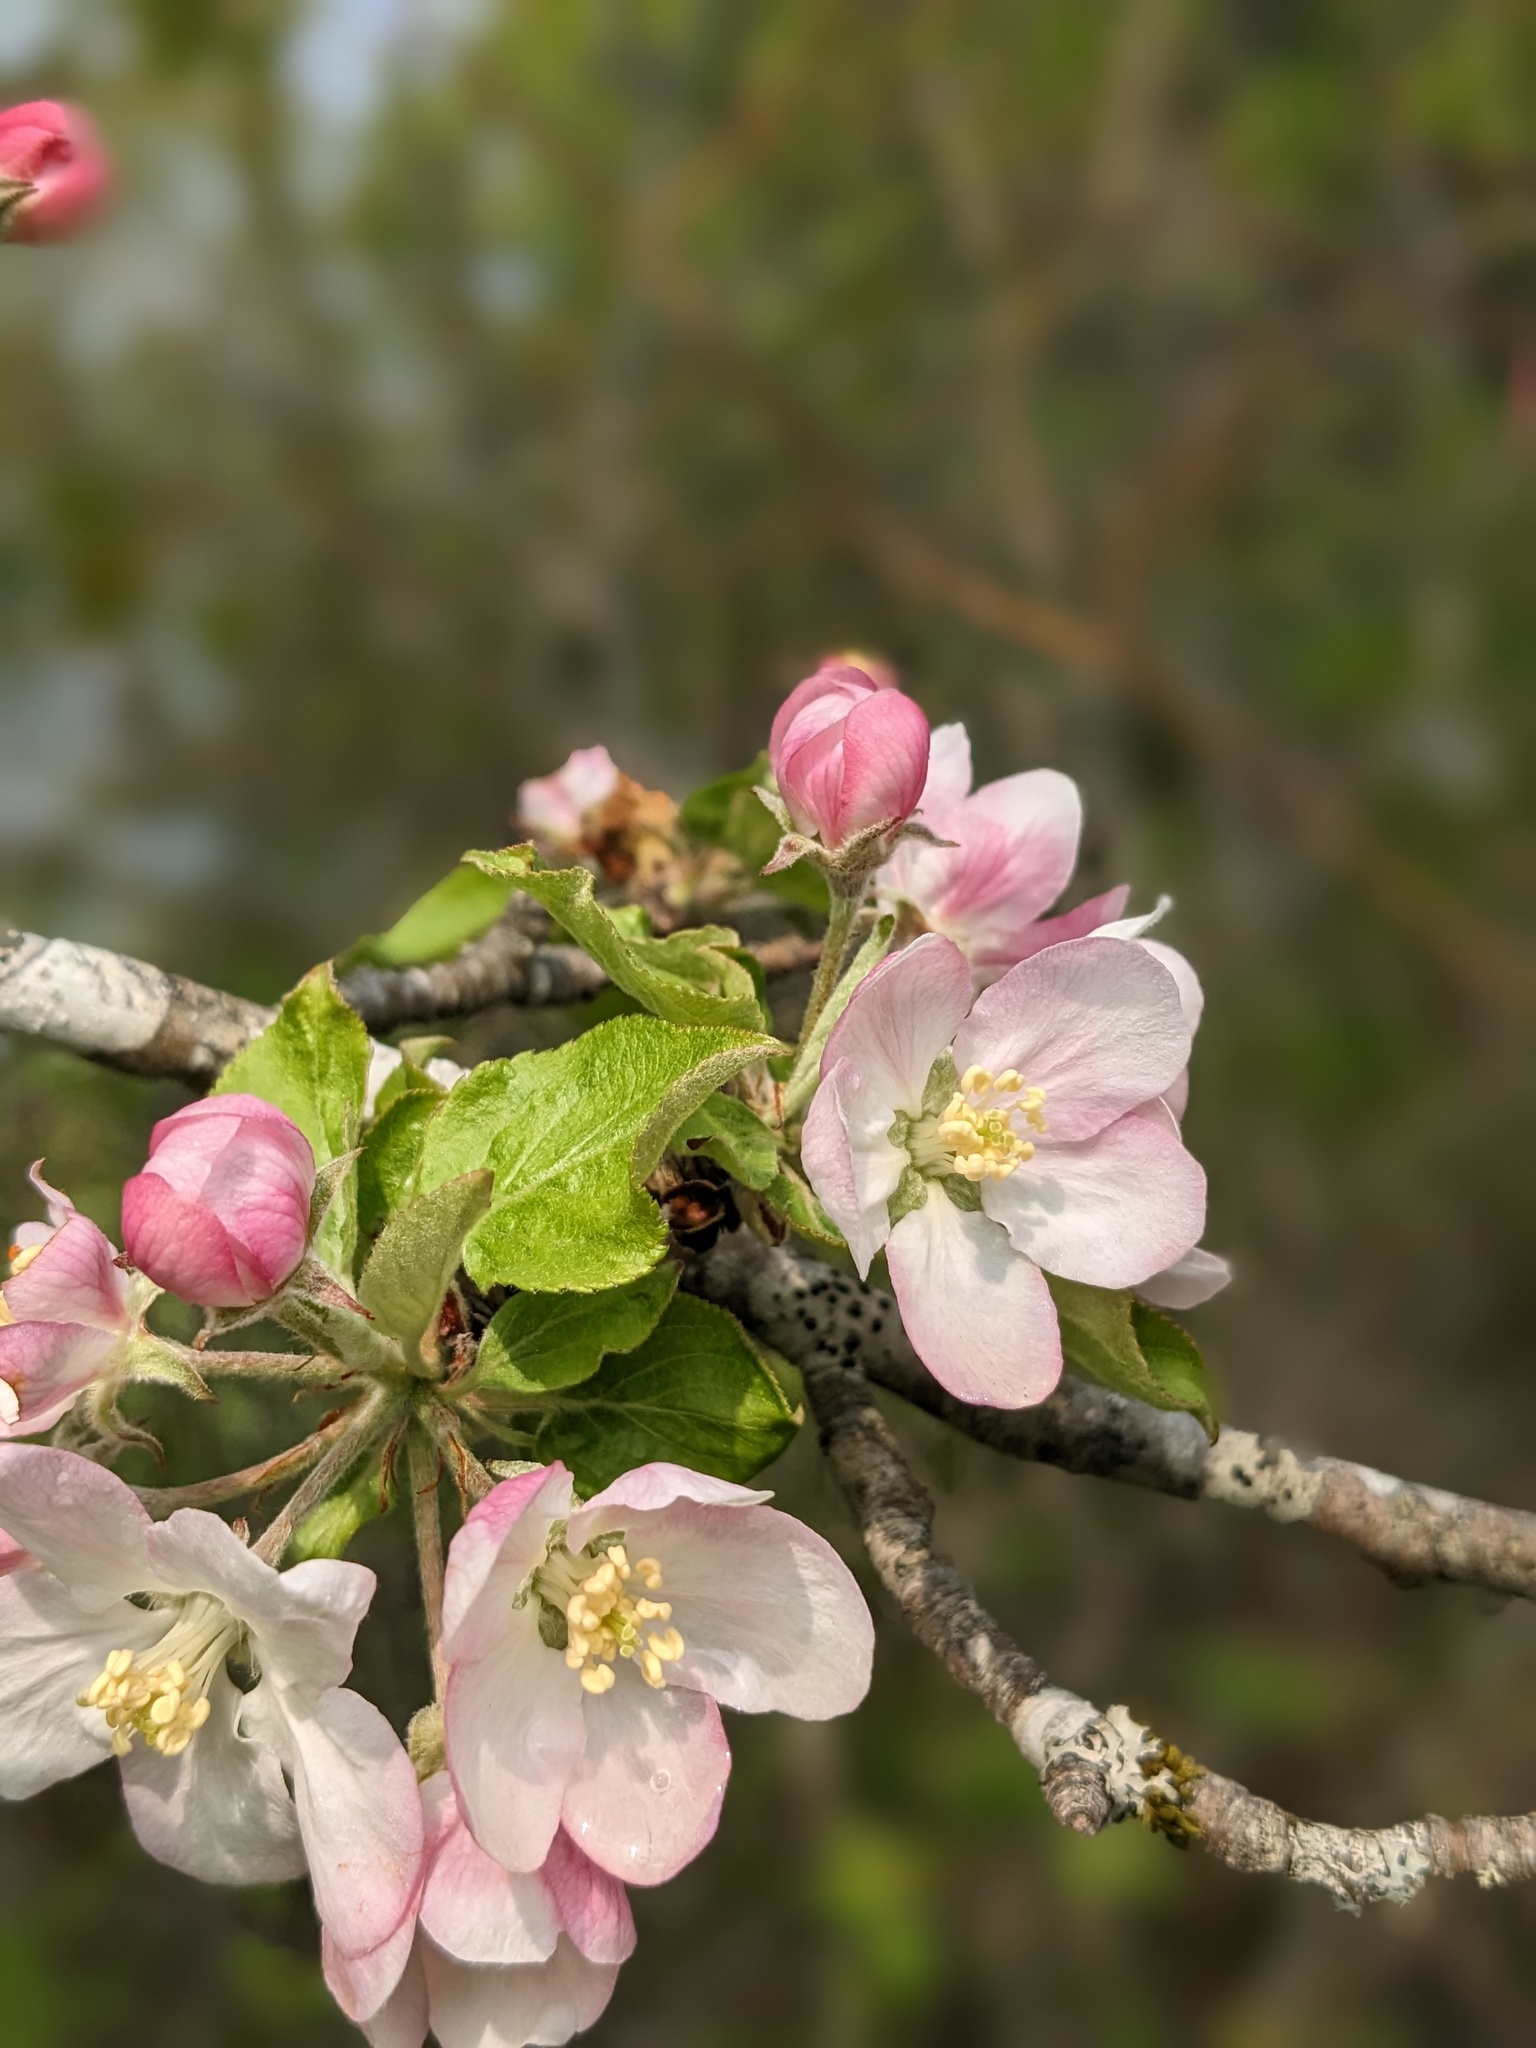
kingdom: Plantae
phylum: Tracheophyta
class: Magnoliopsida
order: Rosales
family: Rosaceae
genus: Malus
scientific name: Malus domestica
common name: Apple
